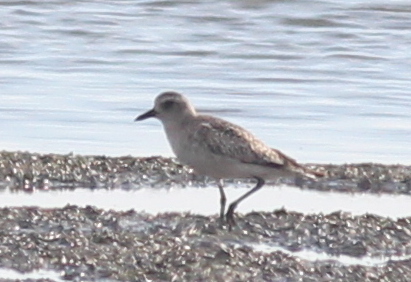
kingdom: Animalia
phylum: Chordata
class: Aves
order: Charadriiformes
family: Charadriidae
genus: Pluvialis
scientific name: Pluvialis squatarola
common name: Grey plover
